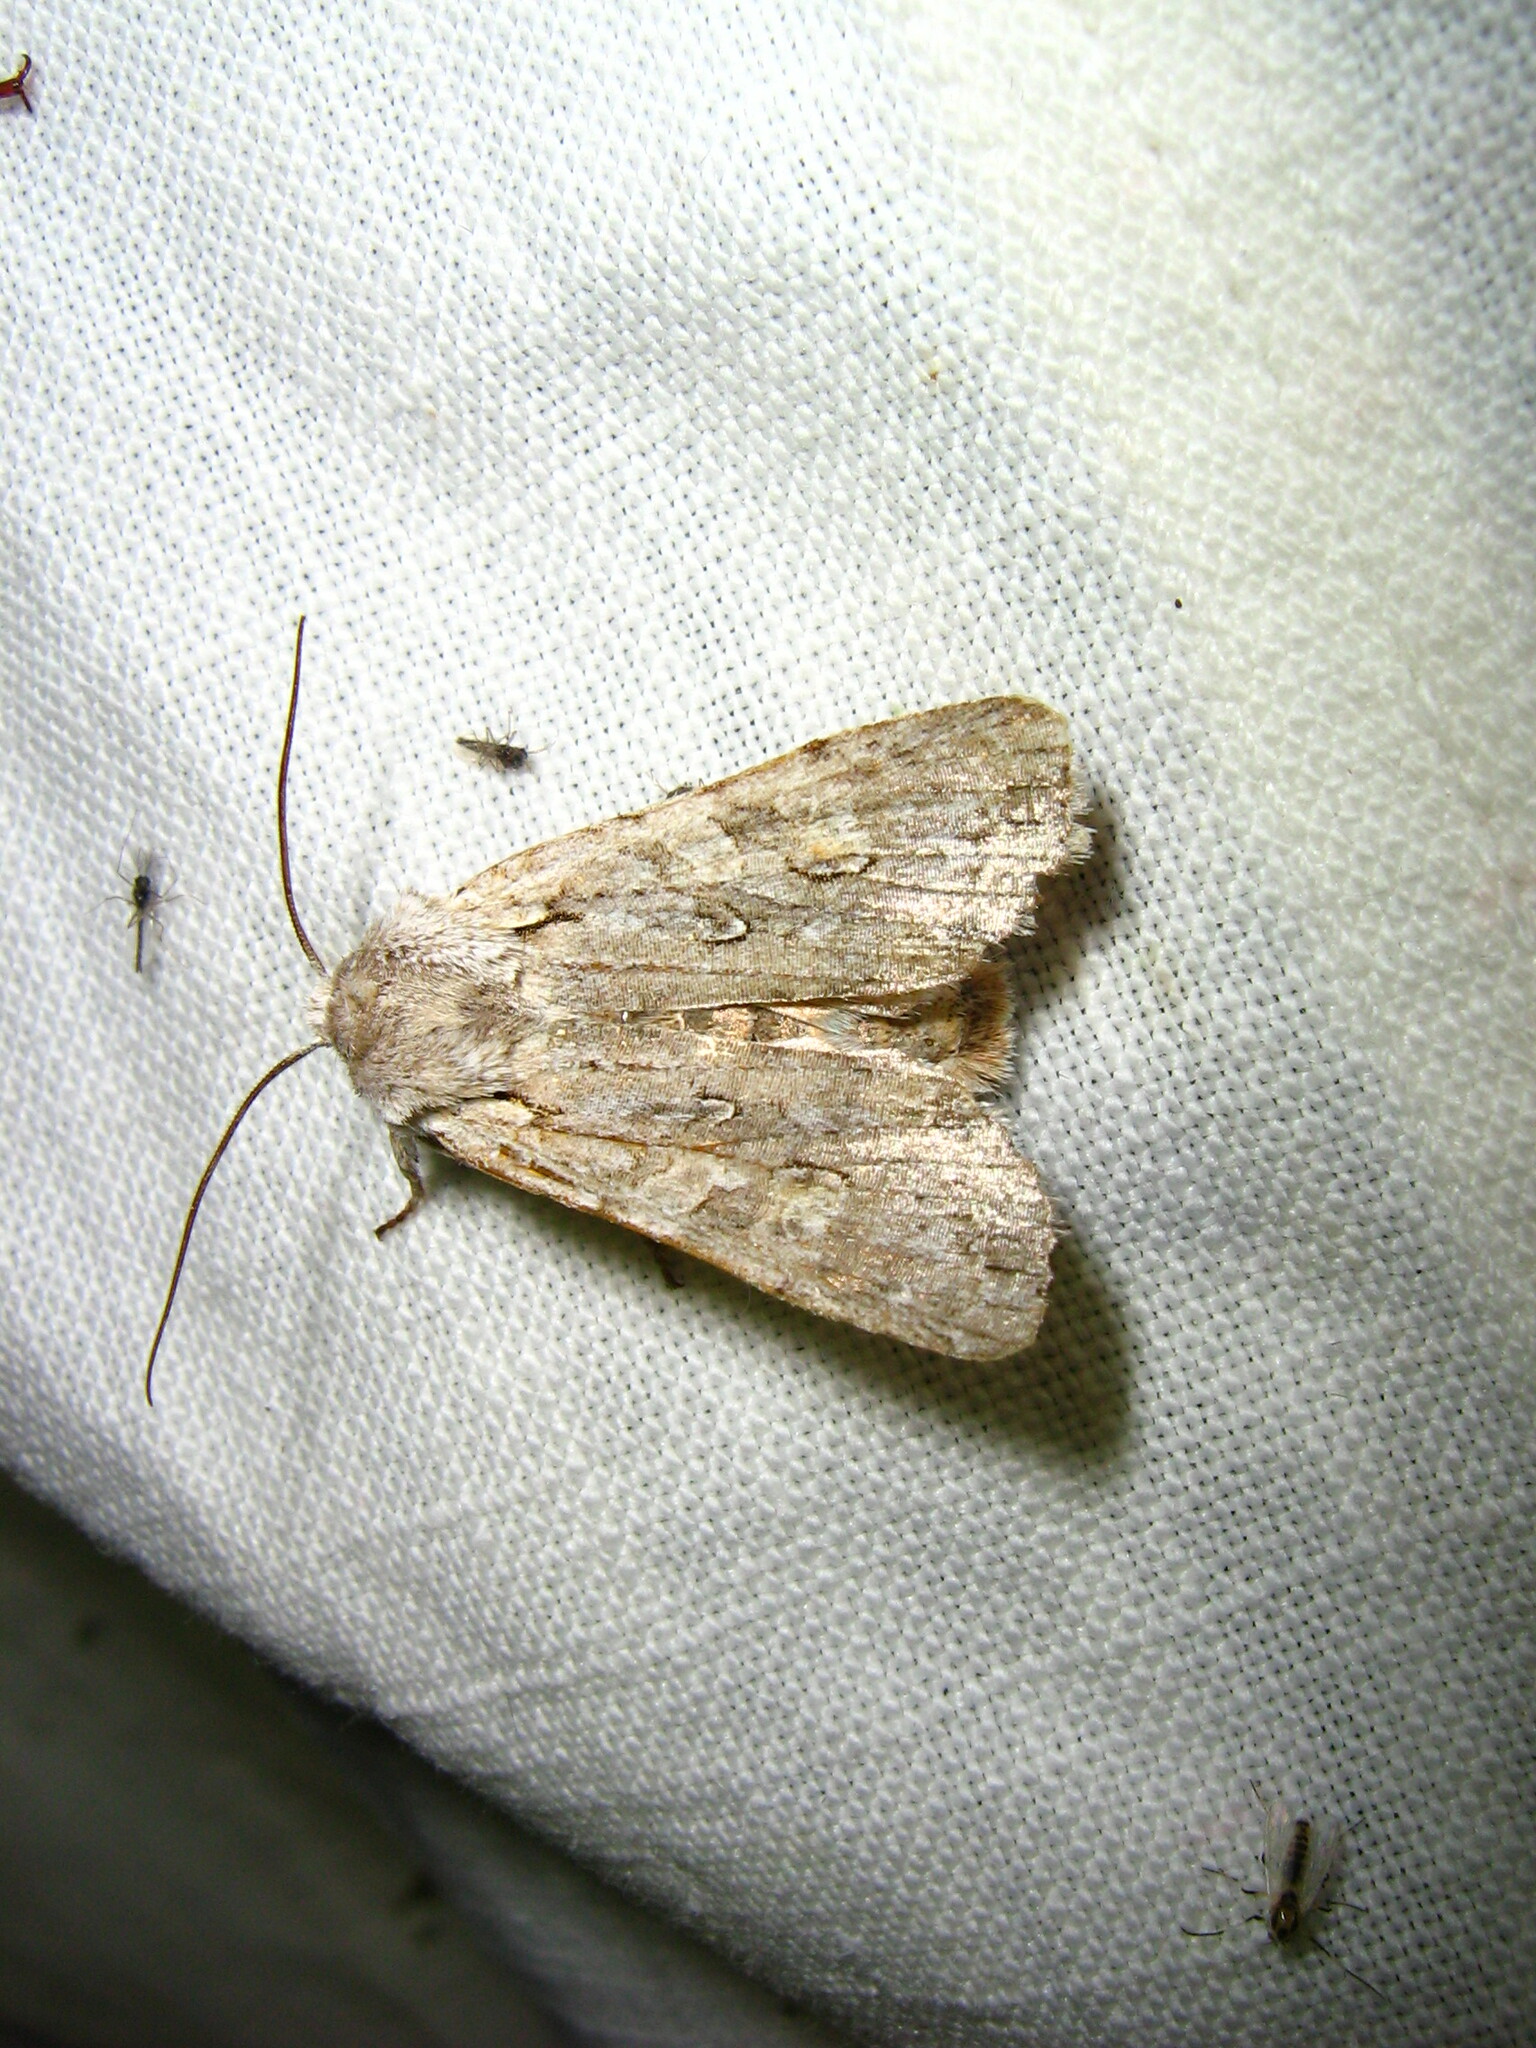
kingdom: Animalia
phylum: Arthropoda
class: Insecta
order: Lepidoptera
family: Noctuidae
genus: Lithophane
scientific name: Lithophane ornitopus
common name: Grey shoulder-knot
